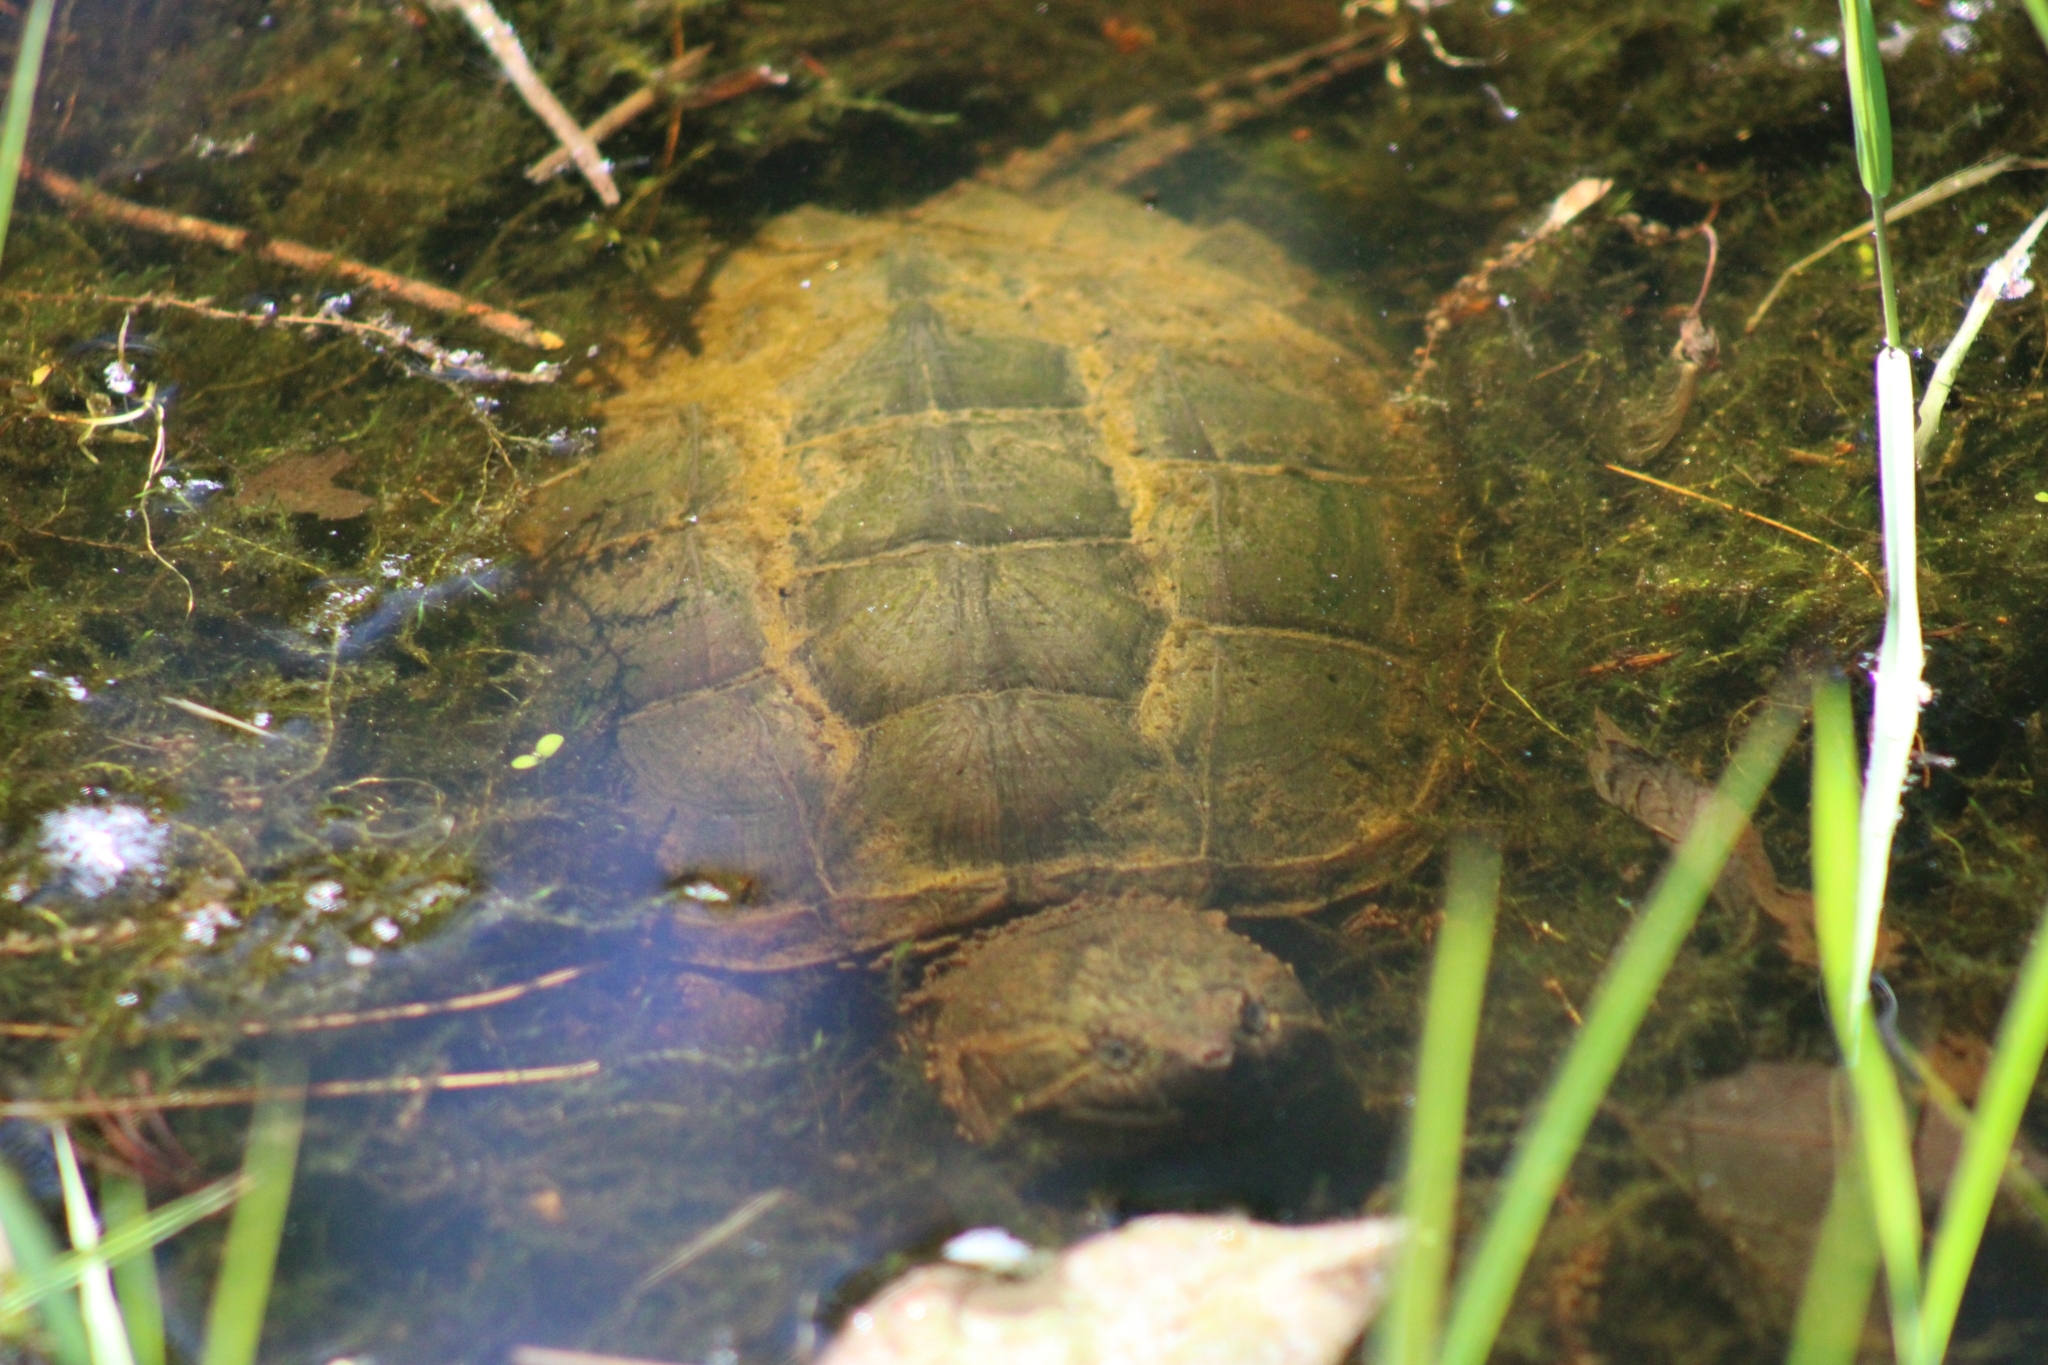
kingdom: Animalia
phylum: Chordata
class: Testudines
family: Chelydridae
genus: Chelydra
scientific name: Chelydra serpentina
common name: Common snapping turtle
